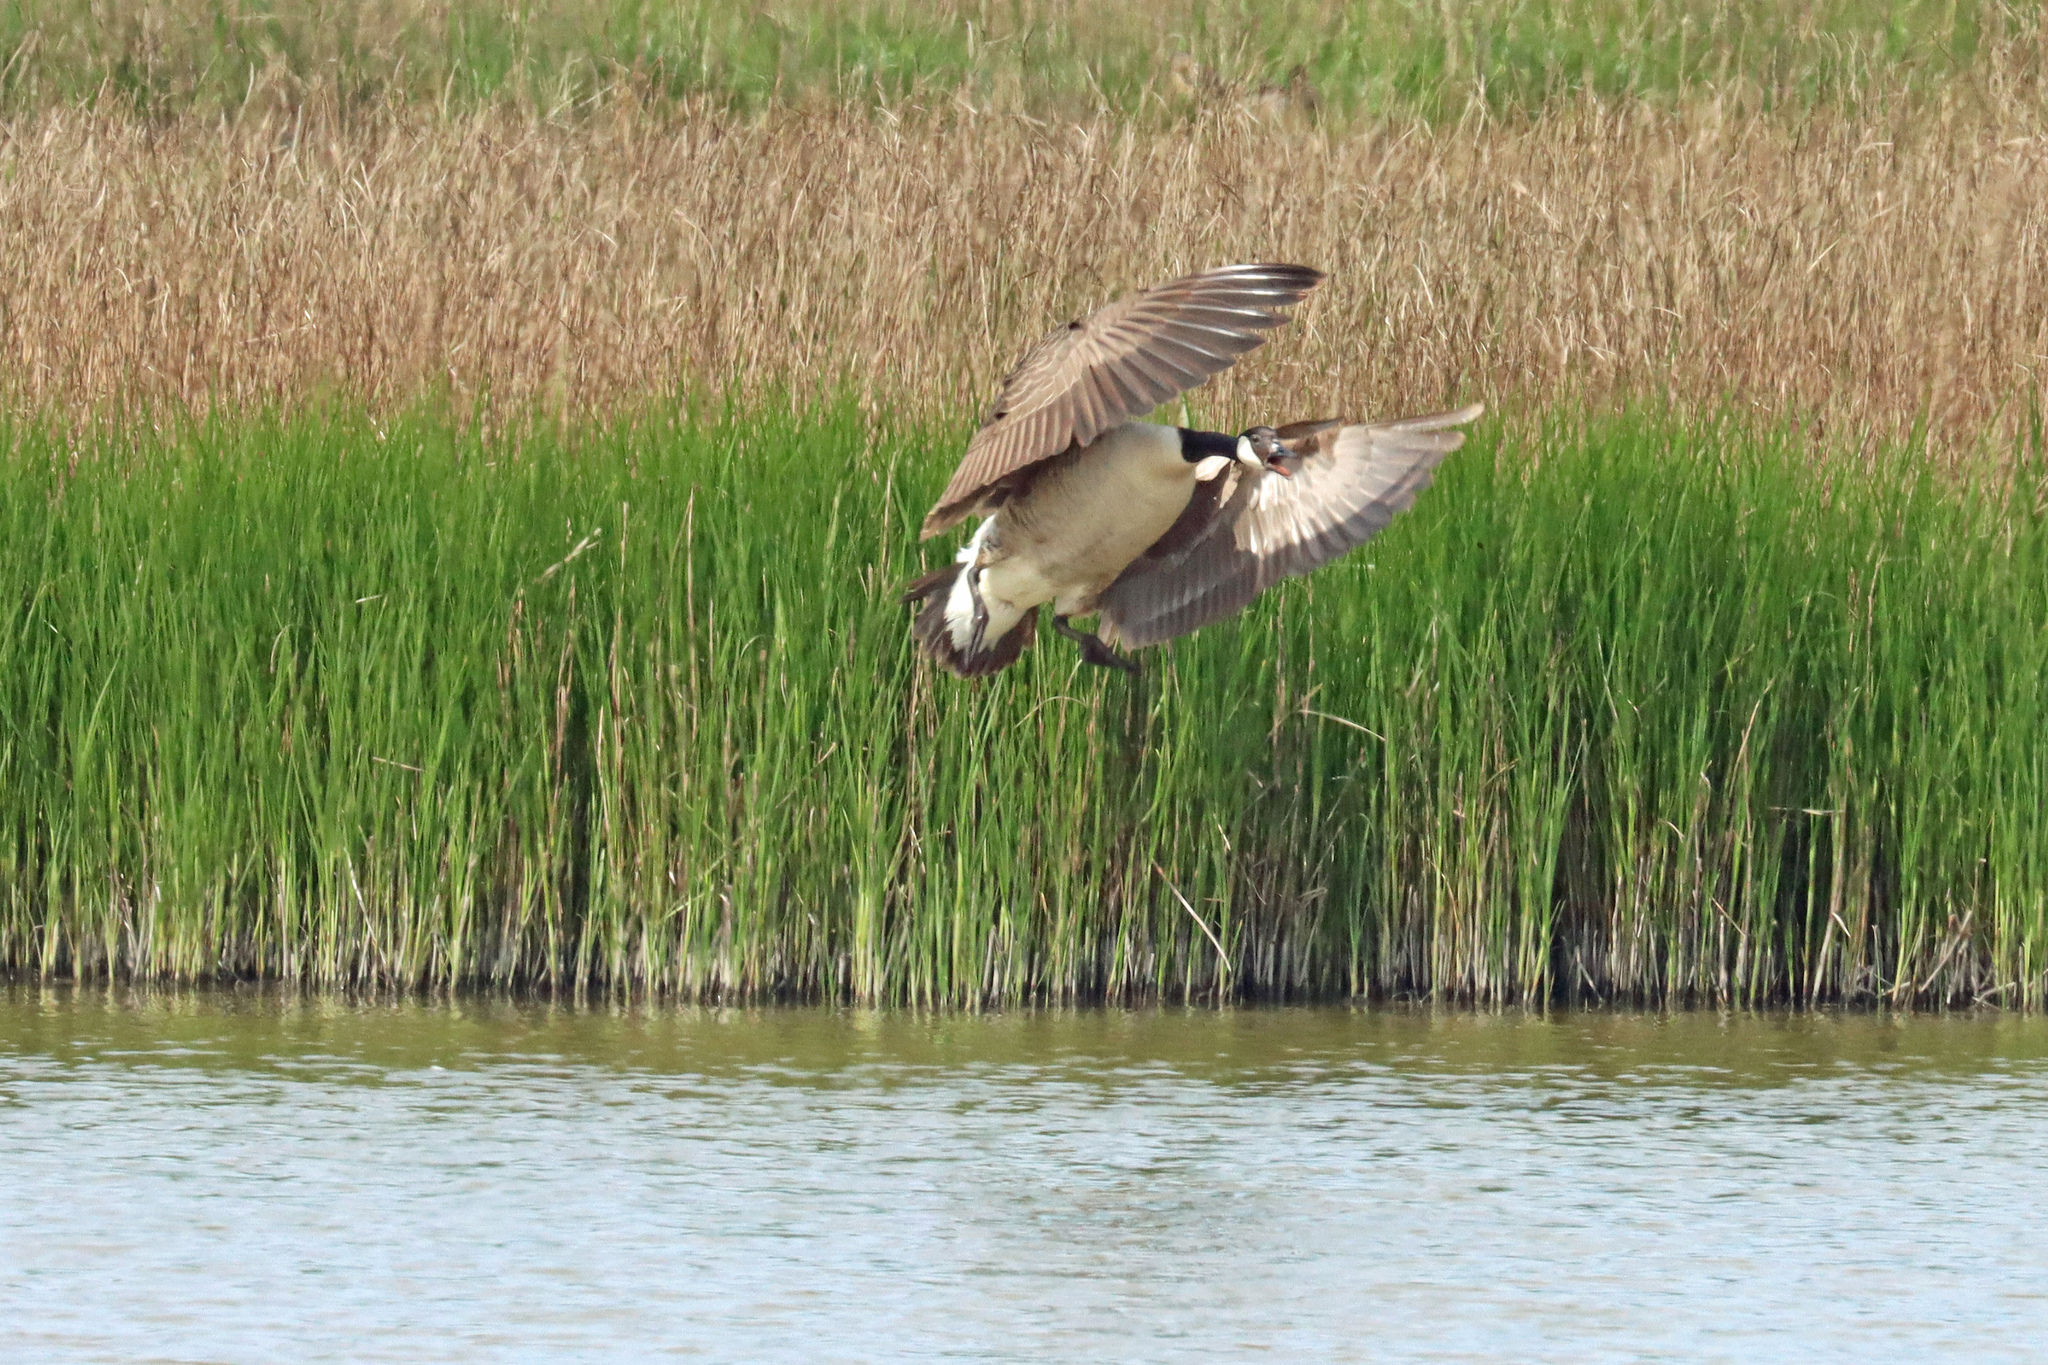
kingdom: Animalia
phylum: Chordata
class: Aves
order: Anseriformes
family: Anatidae
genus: Branta
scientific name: Branta canadensis
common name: Canada goose
